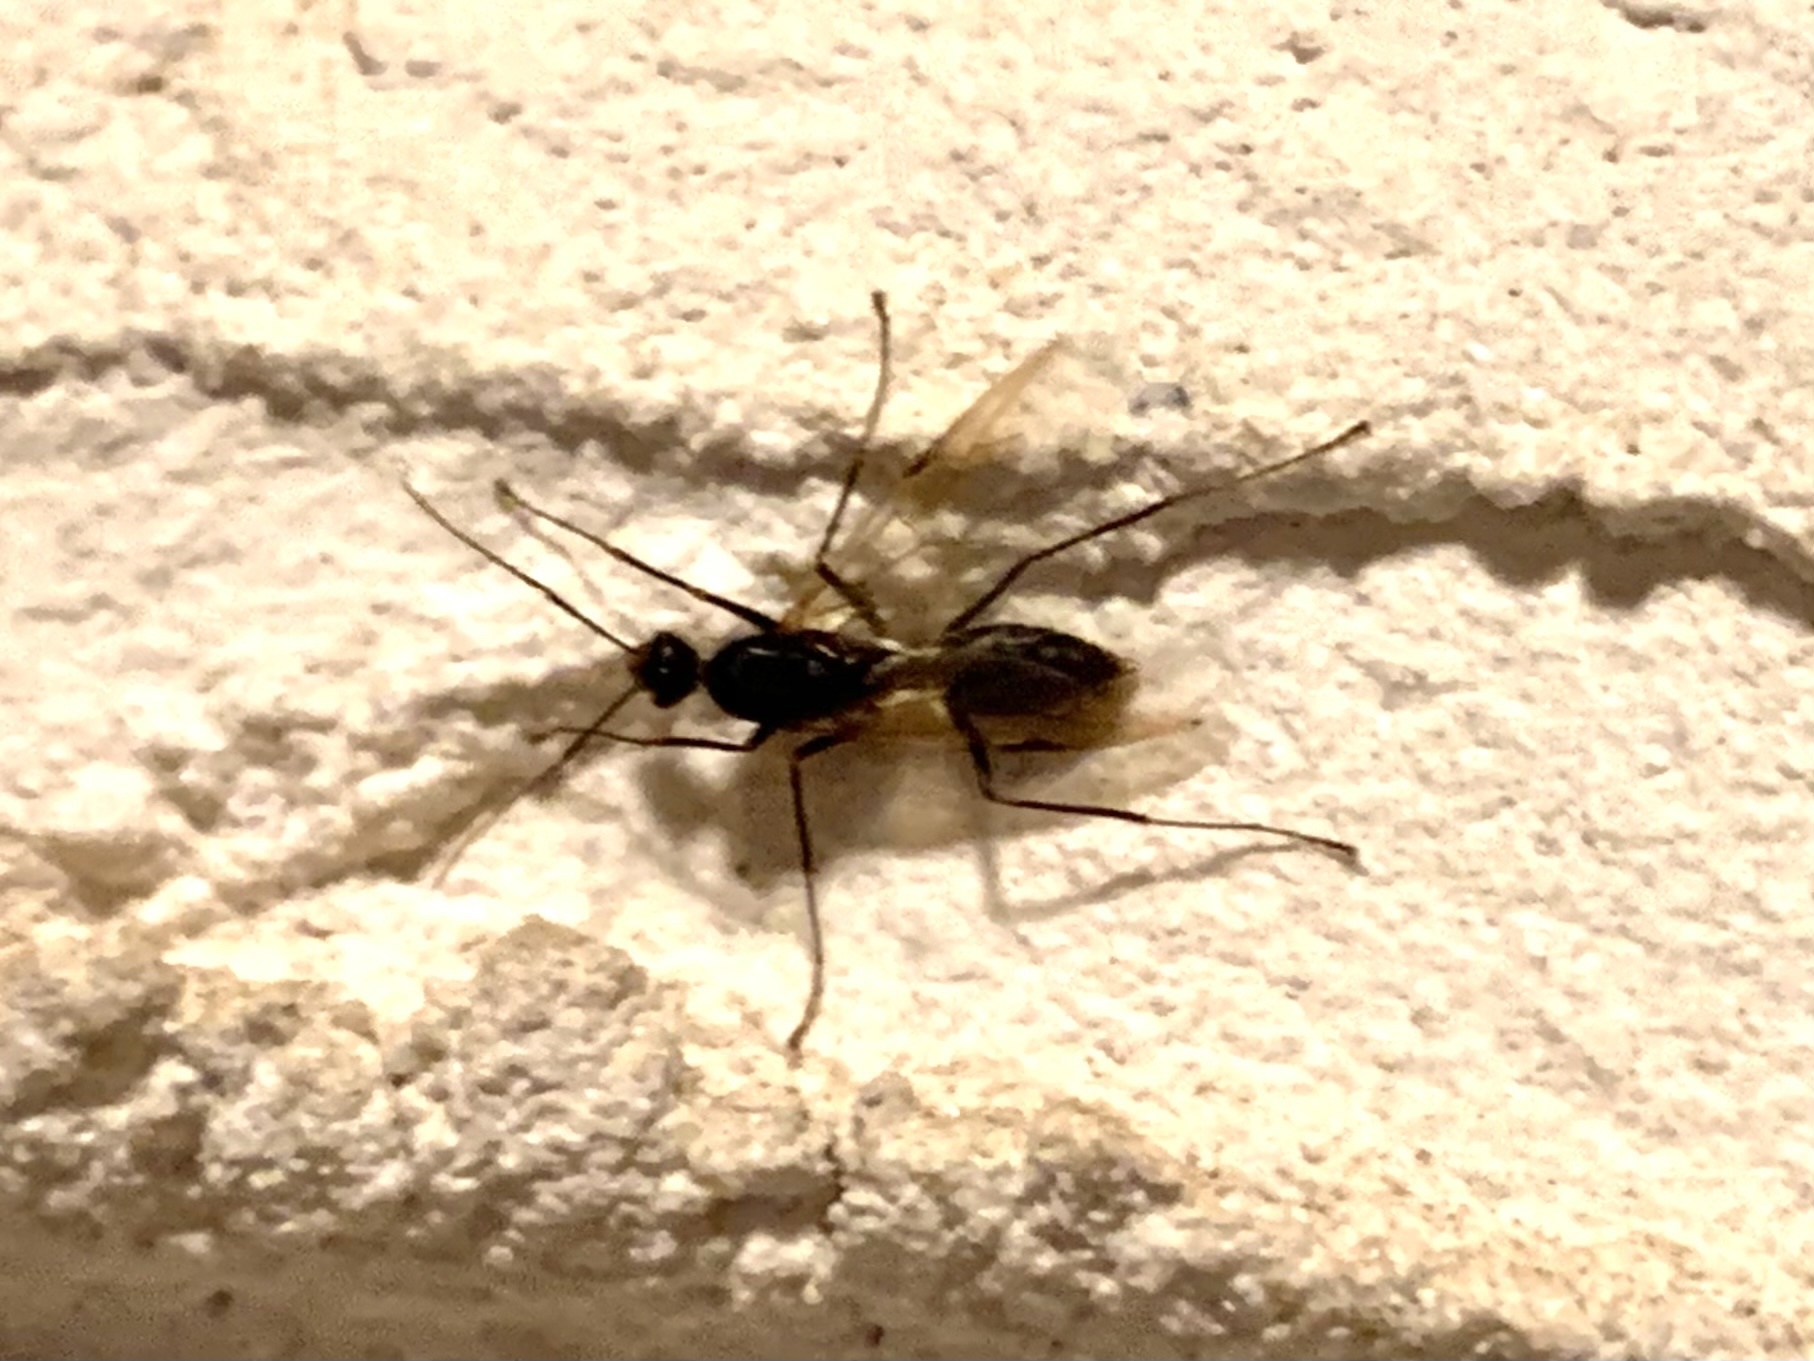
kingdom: Animalia
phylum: Arthropoda
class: Insecta
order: Hymenoptera
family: Formicidae
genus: Camponotus
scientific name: Camponotus
